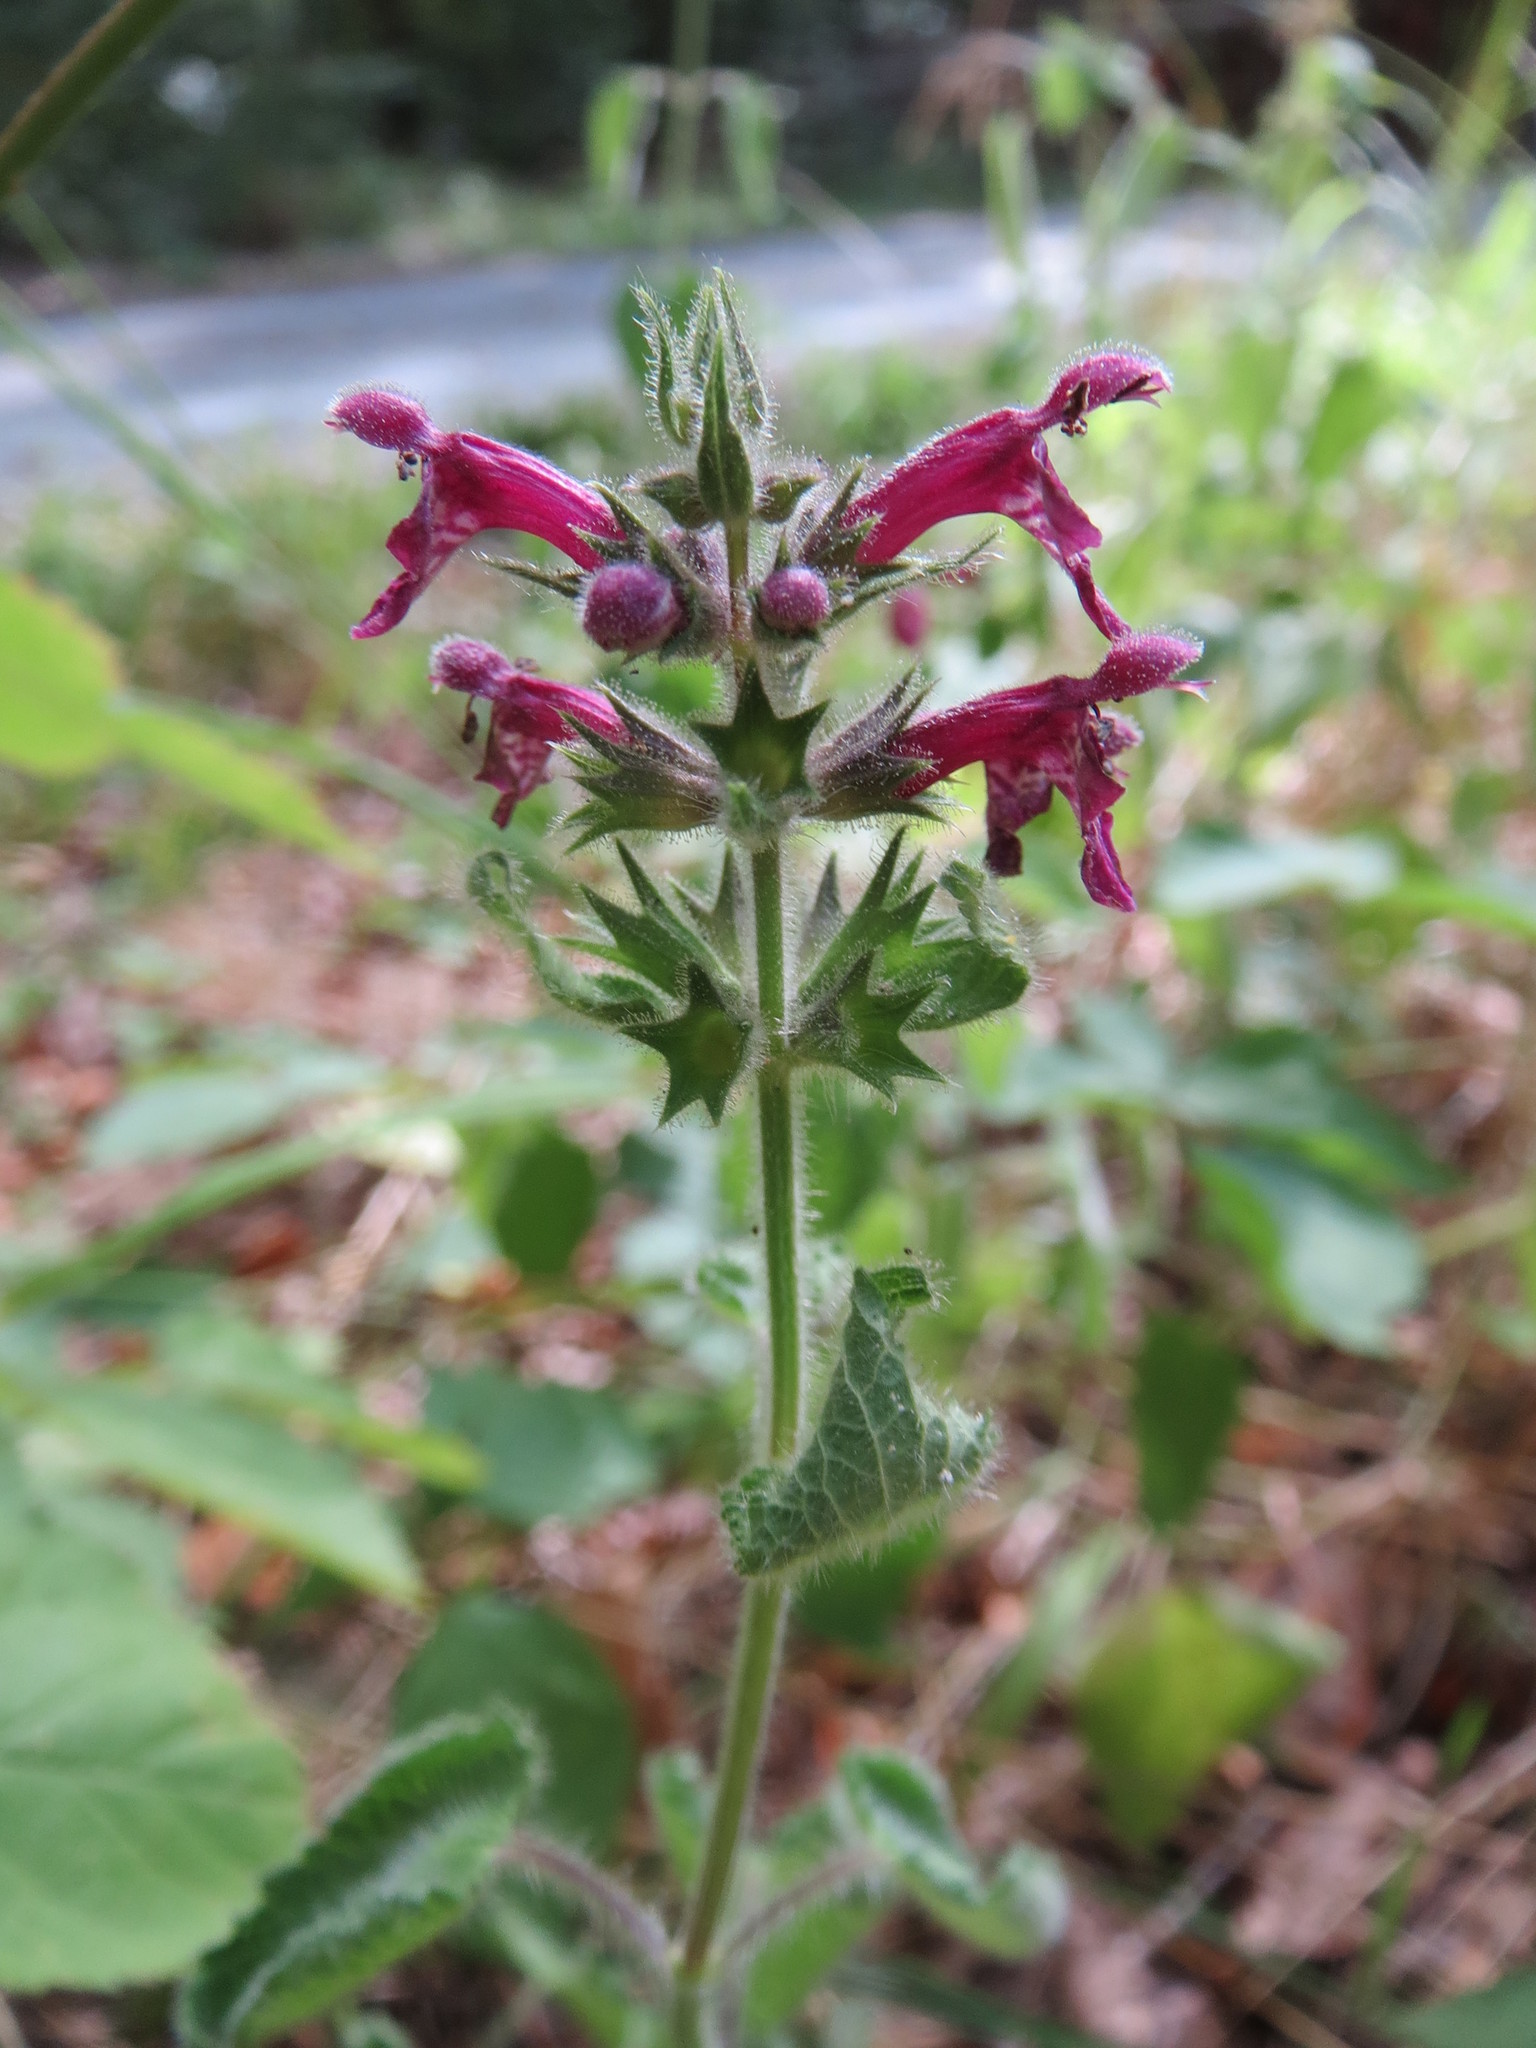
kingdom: Plantae
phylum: Tracheophyta
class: Magnoliopsida
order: Lamiales
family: Lamiaceae
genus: Stachys
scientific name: Stachys sylvatica
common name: Hedge woundwort
